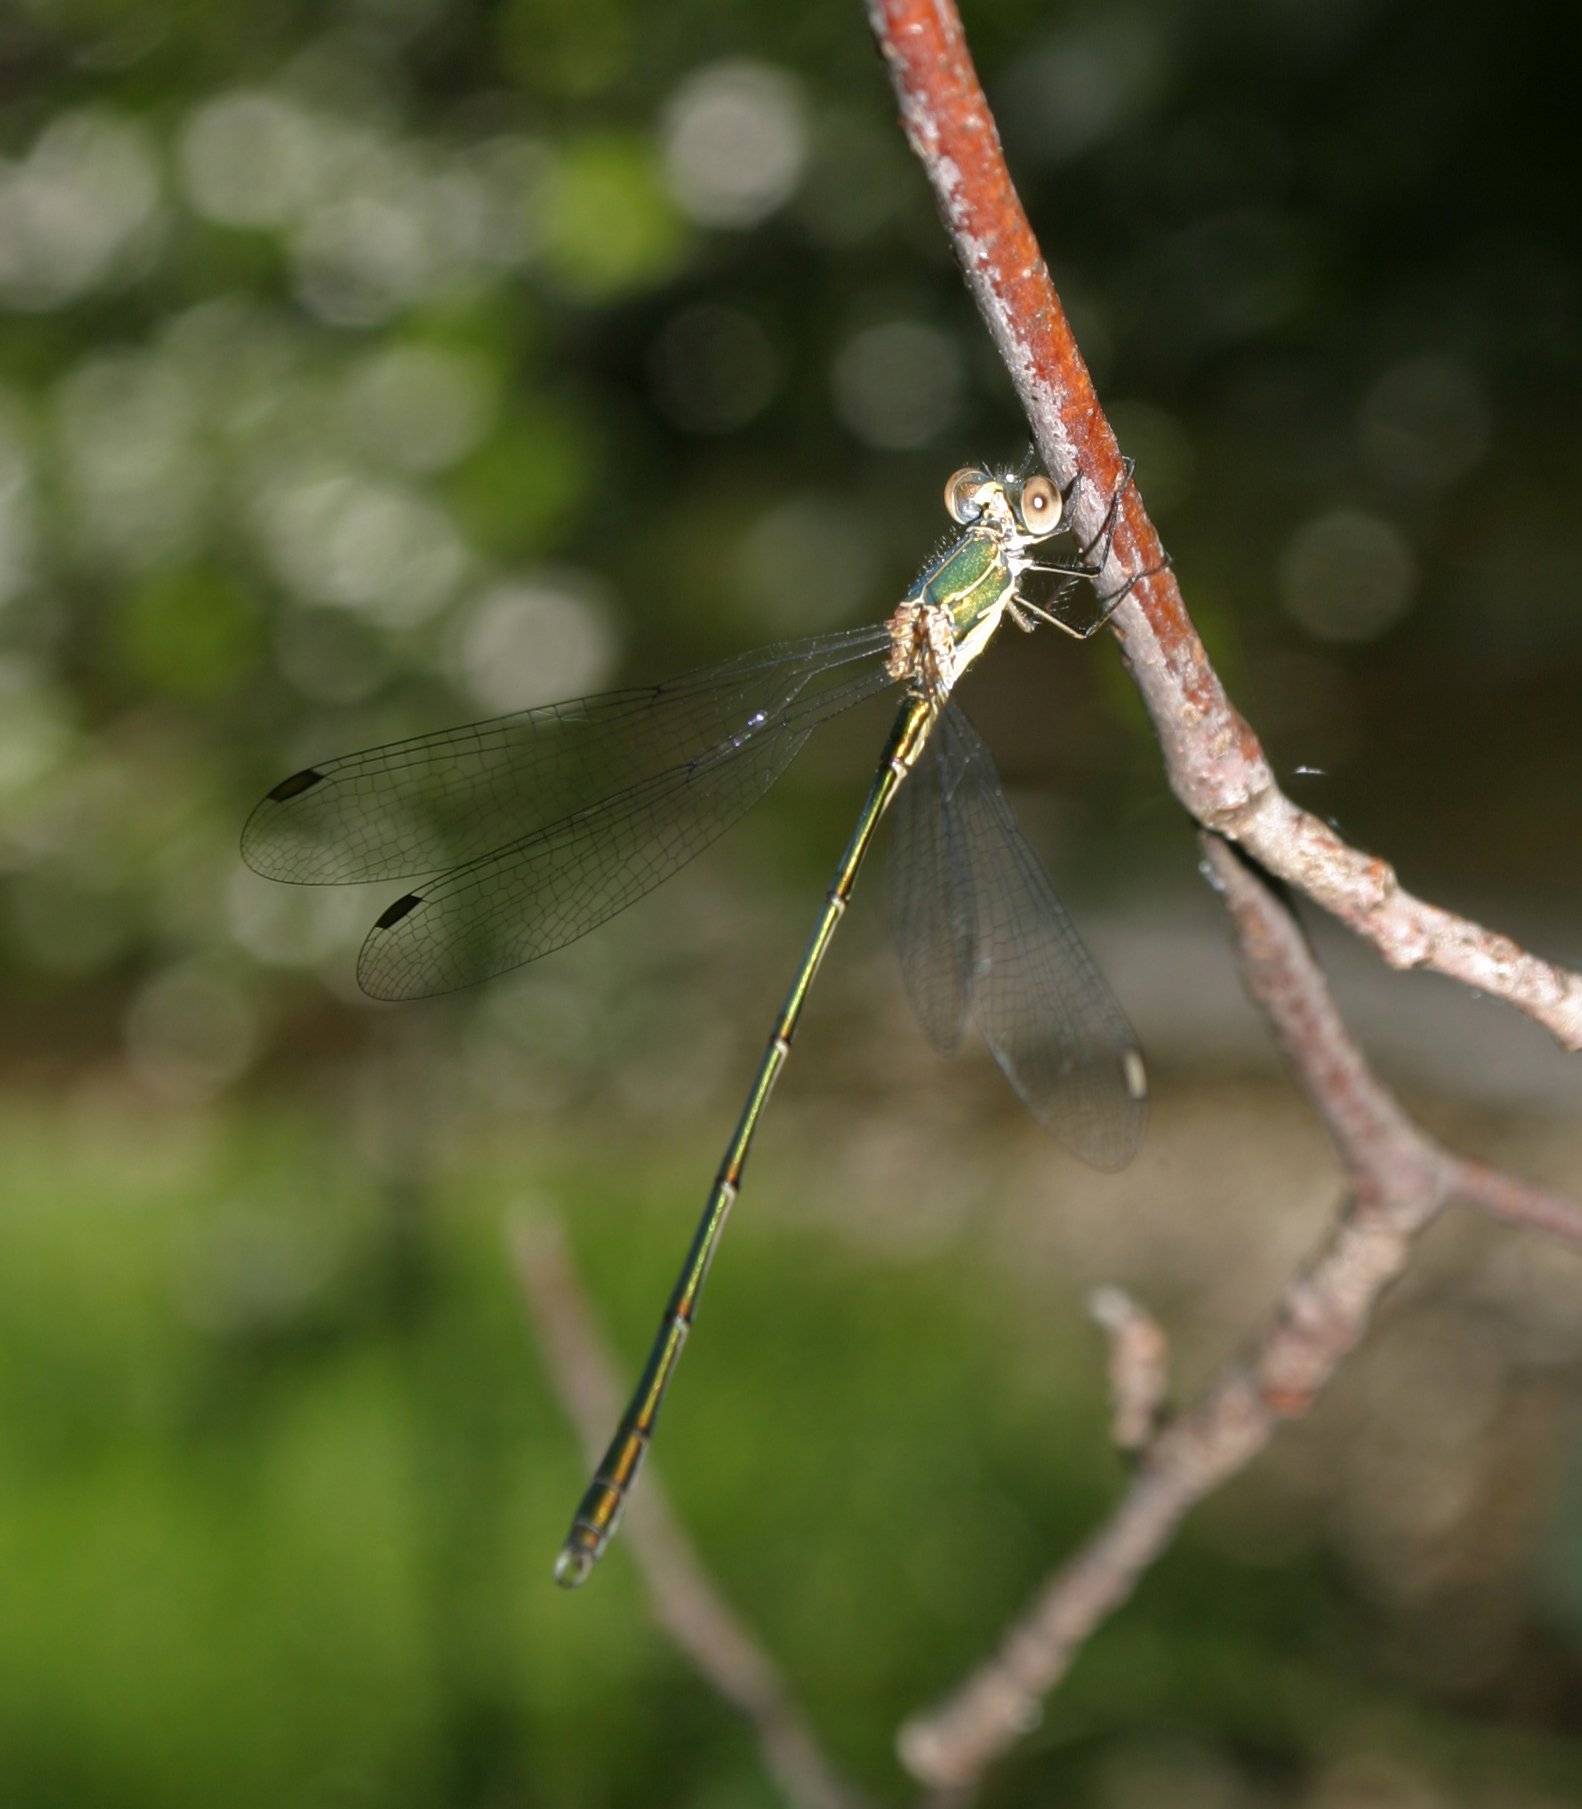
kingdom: Animalia
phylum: Arthropoda
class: Insecta
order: Odonata
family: Lestidae
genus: Chalcolestes
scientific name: Chalcolestes viridis
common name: Green emerald damselfly
